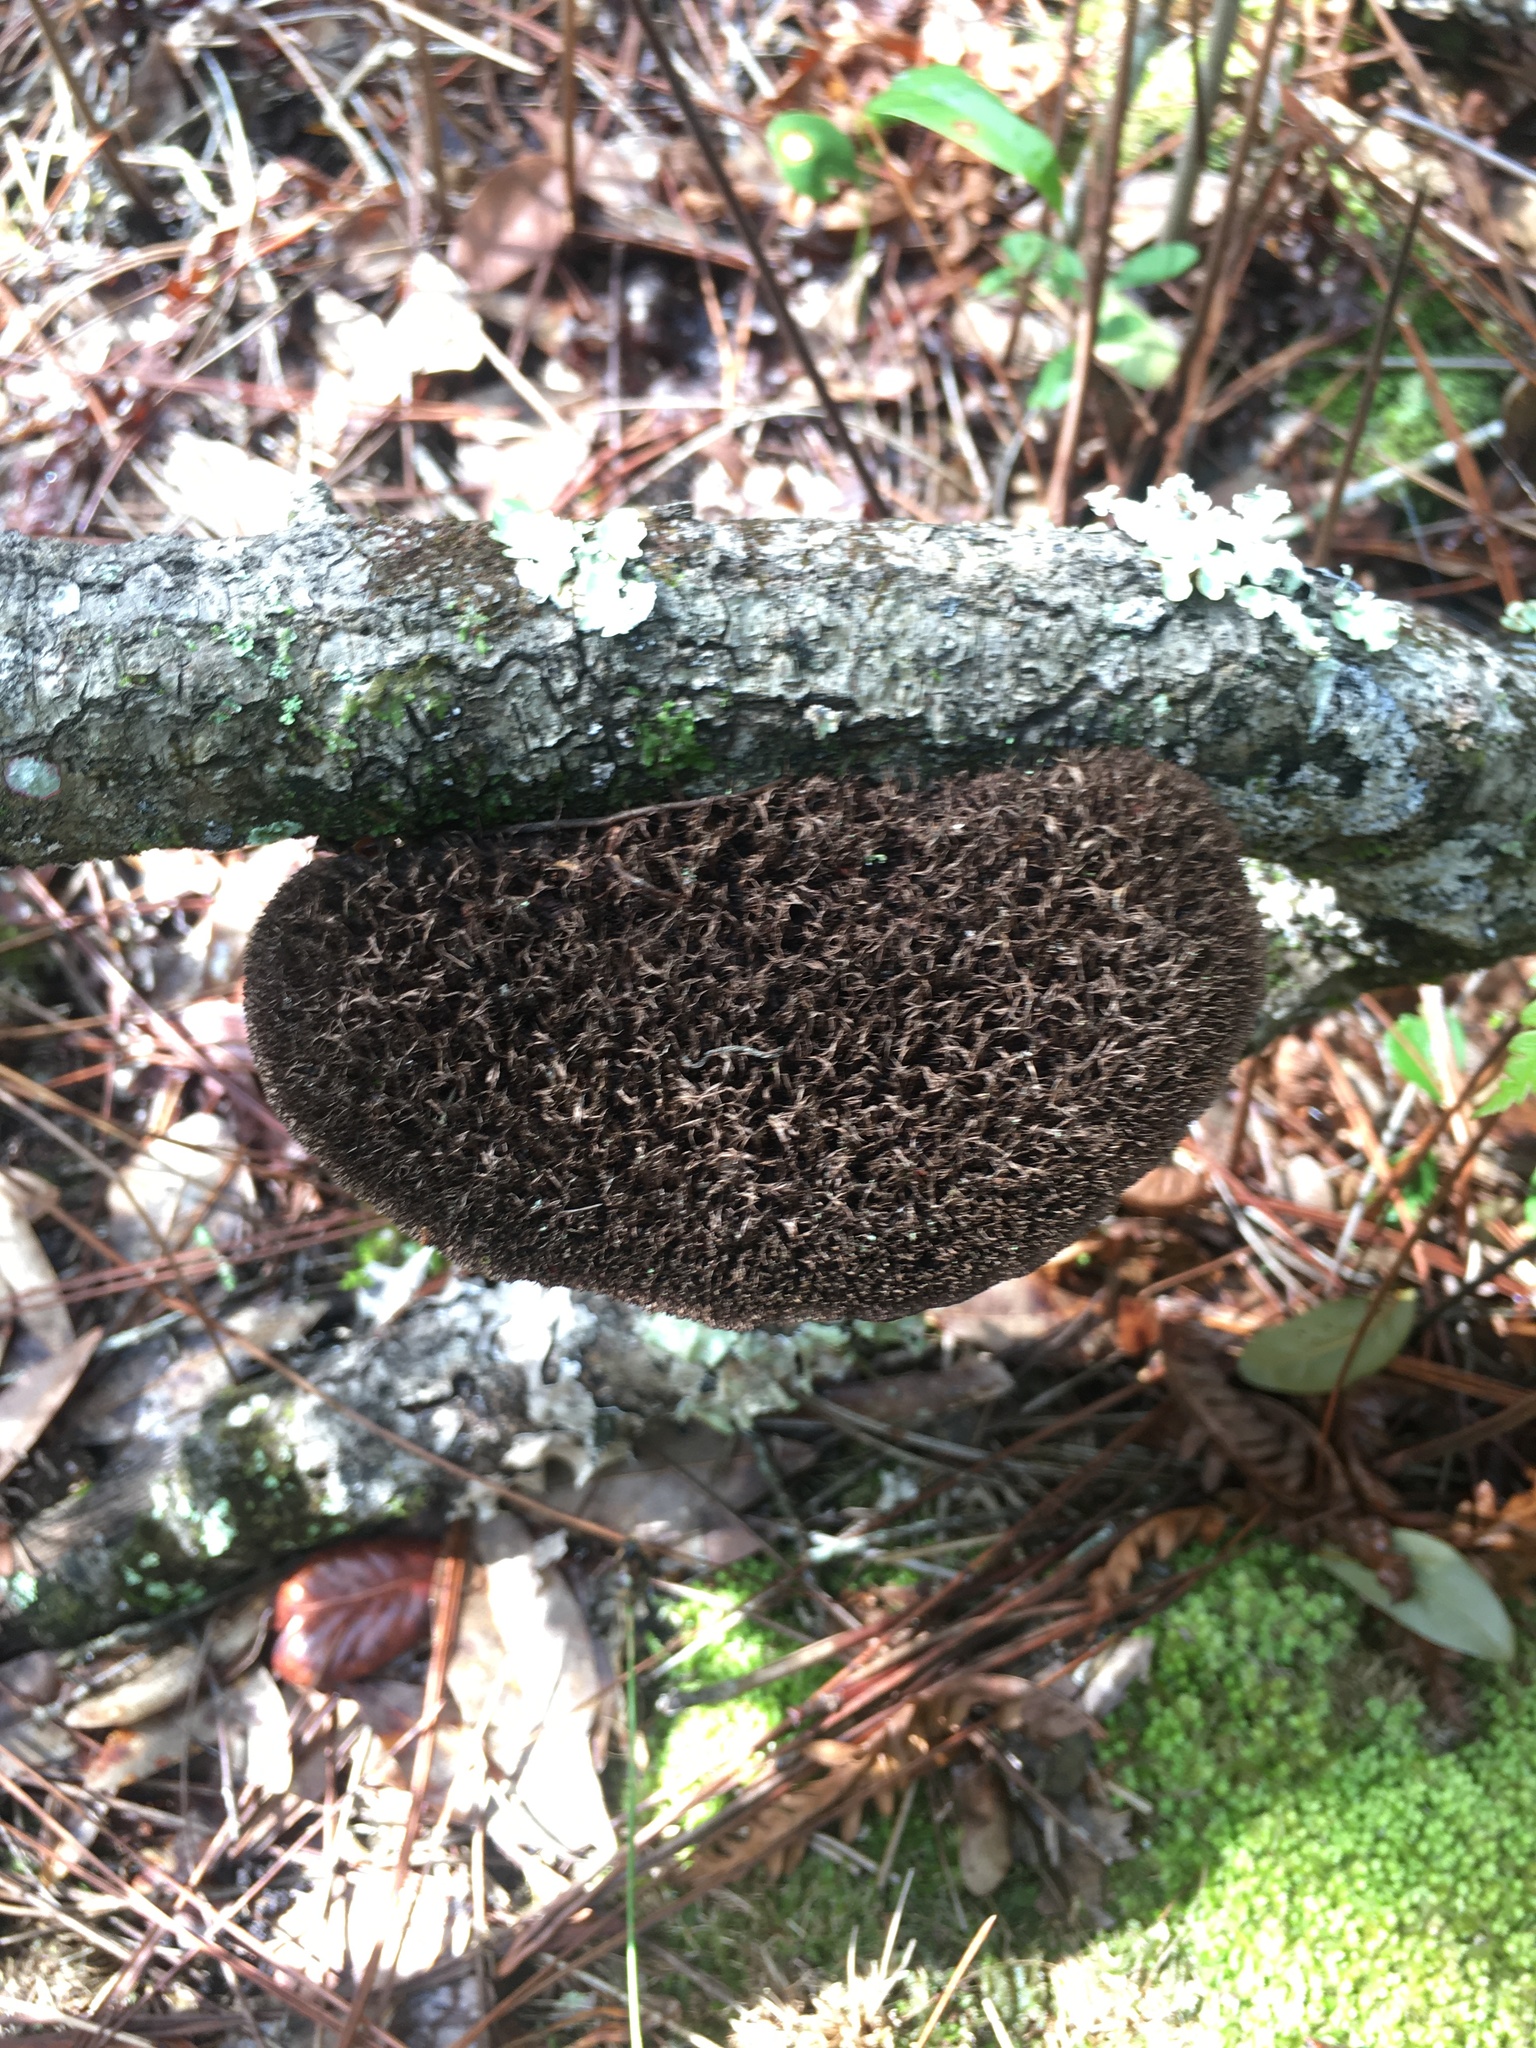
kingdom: Fungi
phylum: Basidiomycota
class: Agaricomycetes
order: Polyporales
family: Cerrenaceae
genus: Cerrena
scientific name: Cerrena hydnoides
